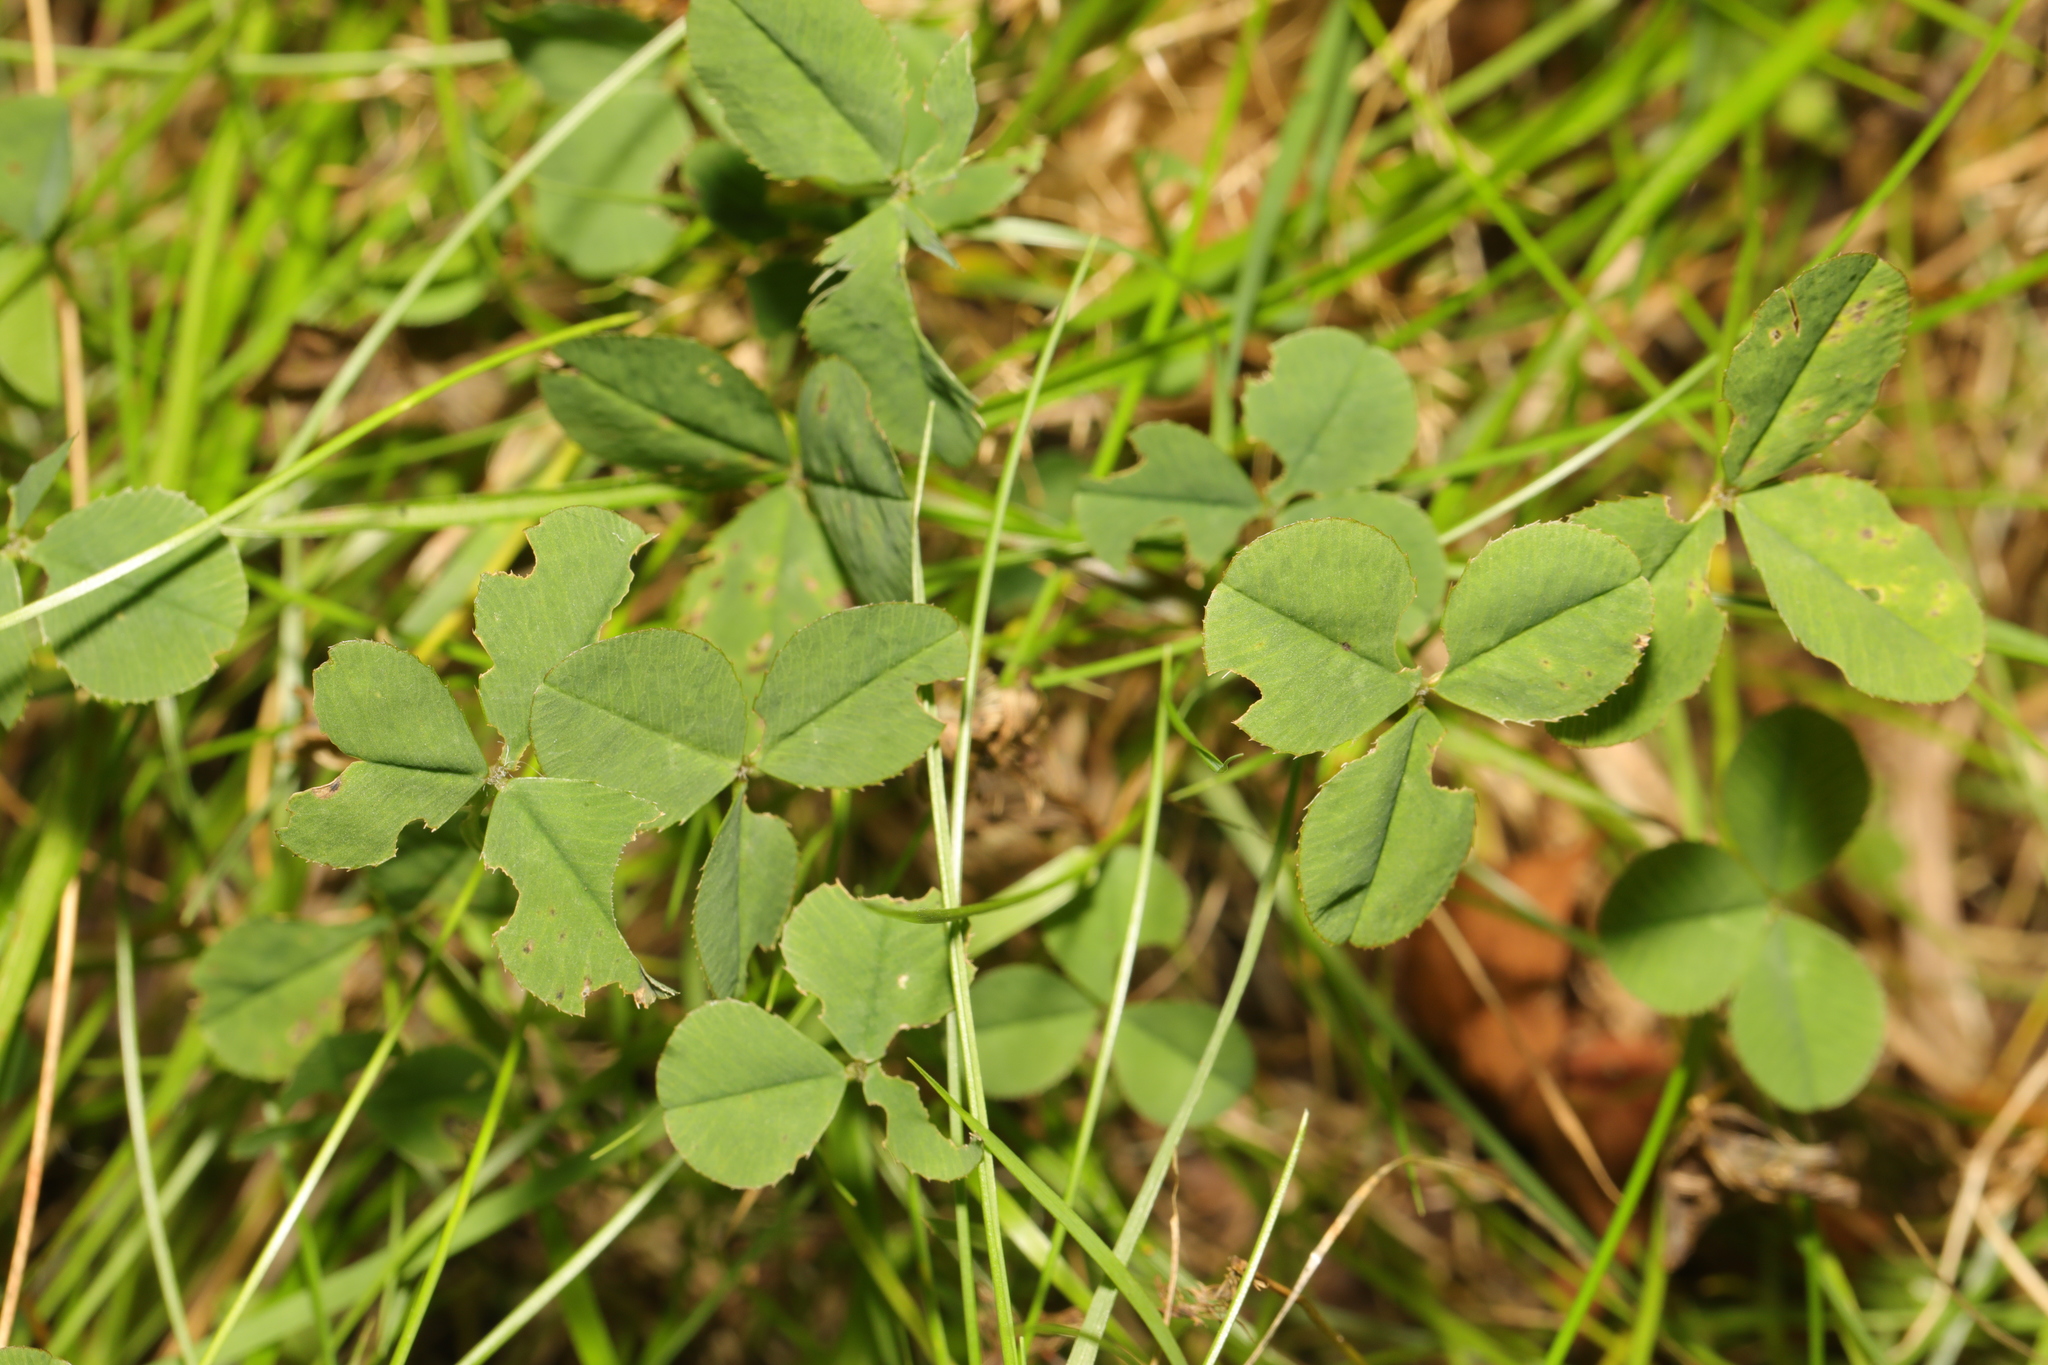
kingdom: Plantae
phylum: Tracheophyta
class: Magnoliopsida
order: Fabales
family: Fabaceae
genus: Trifolium
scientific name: Trifolium repens
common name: White clover
